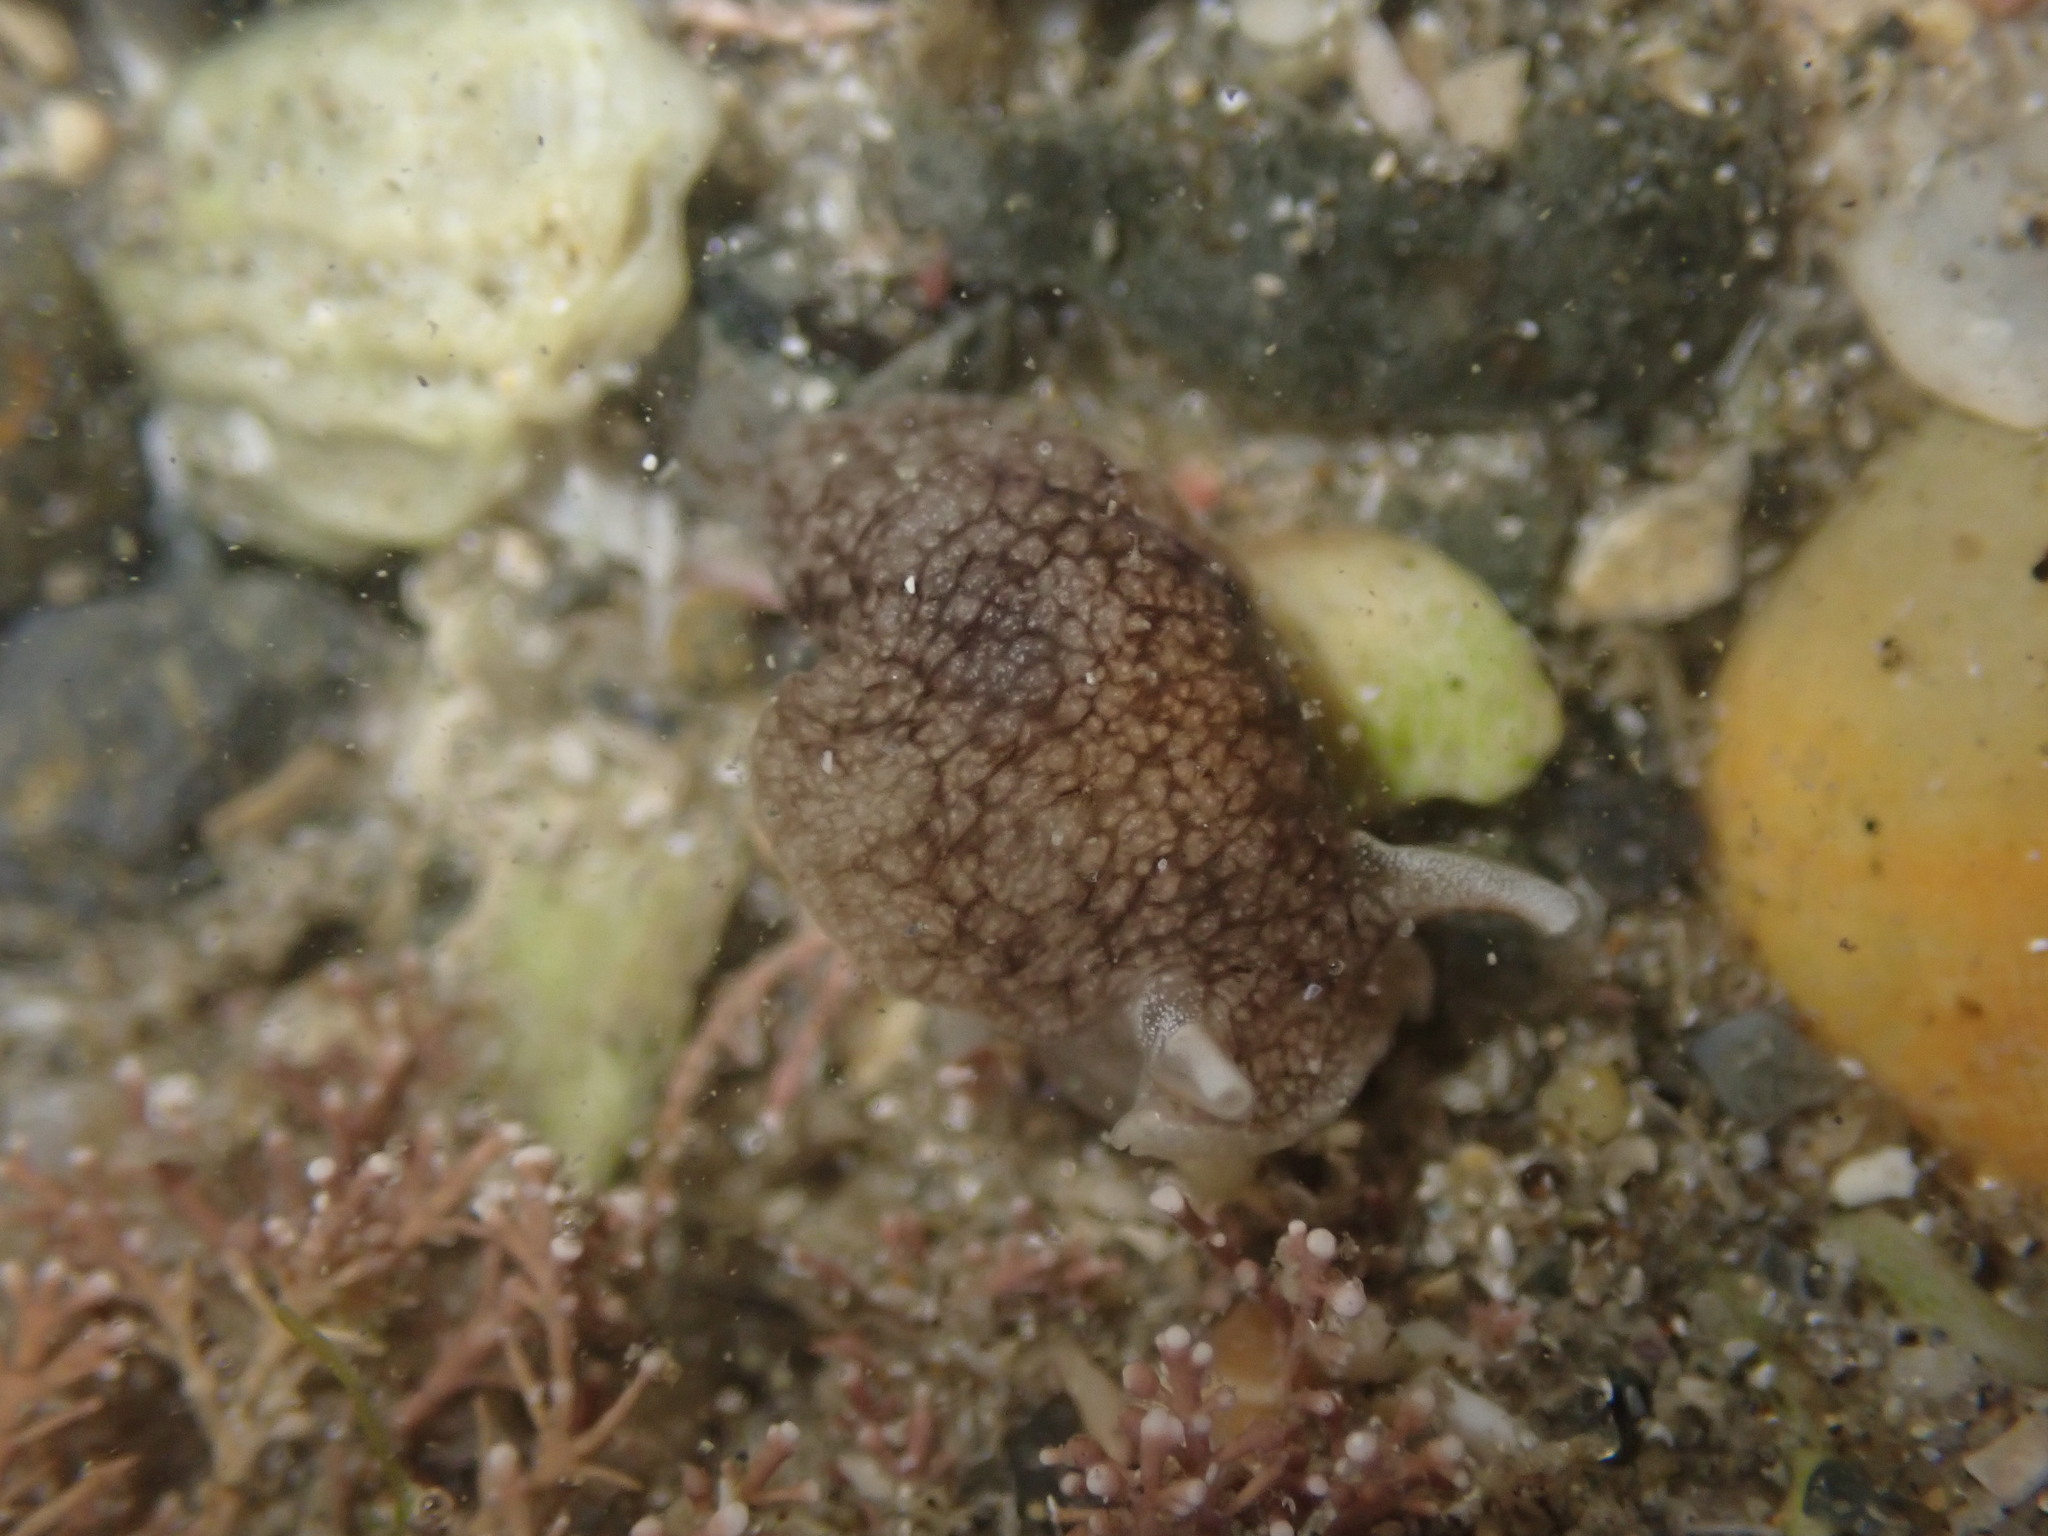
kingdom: Animalia
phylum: Mollusca
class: Gastropoda
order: Pleurobranchida
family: Pleurobranchaeidae
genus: Pleurobranchaea
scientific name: Pleurobranchaea maculata
